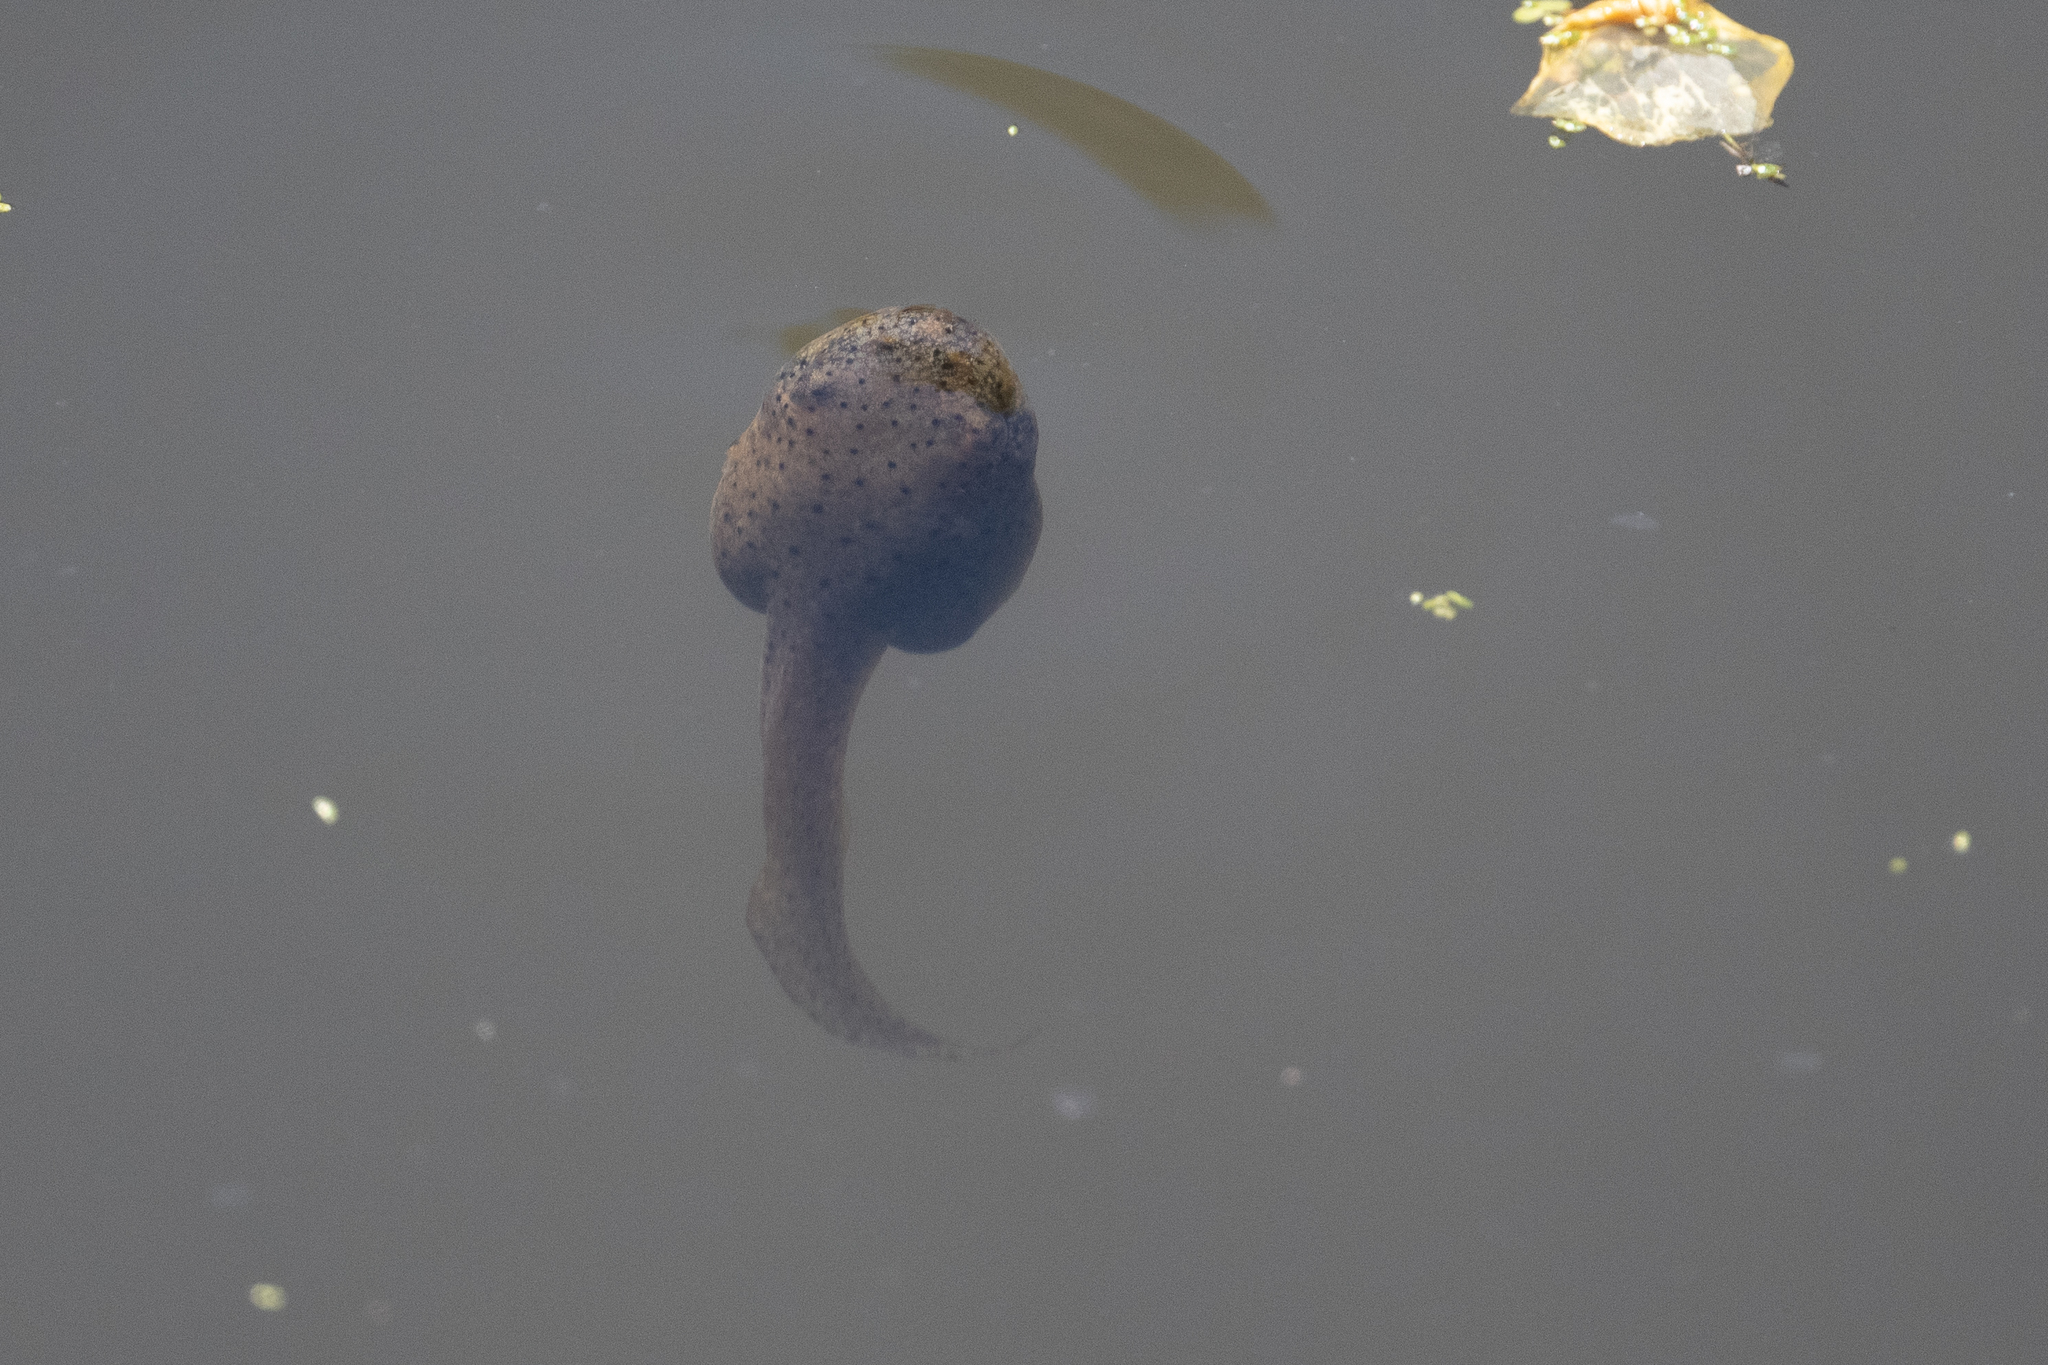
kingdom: Animalia
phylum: Chordata
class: Amphibia
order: Anura
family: Ranidae
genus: Lithobates
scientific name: Lithobates catesbeianus
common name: American bullfrog
